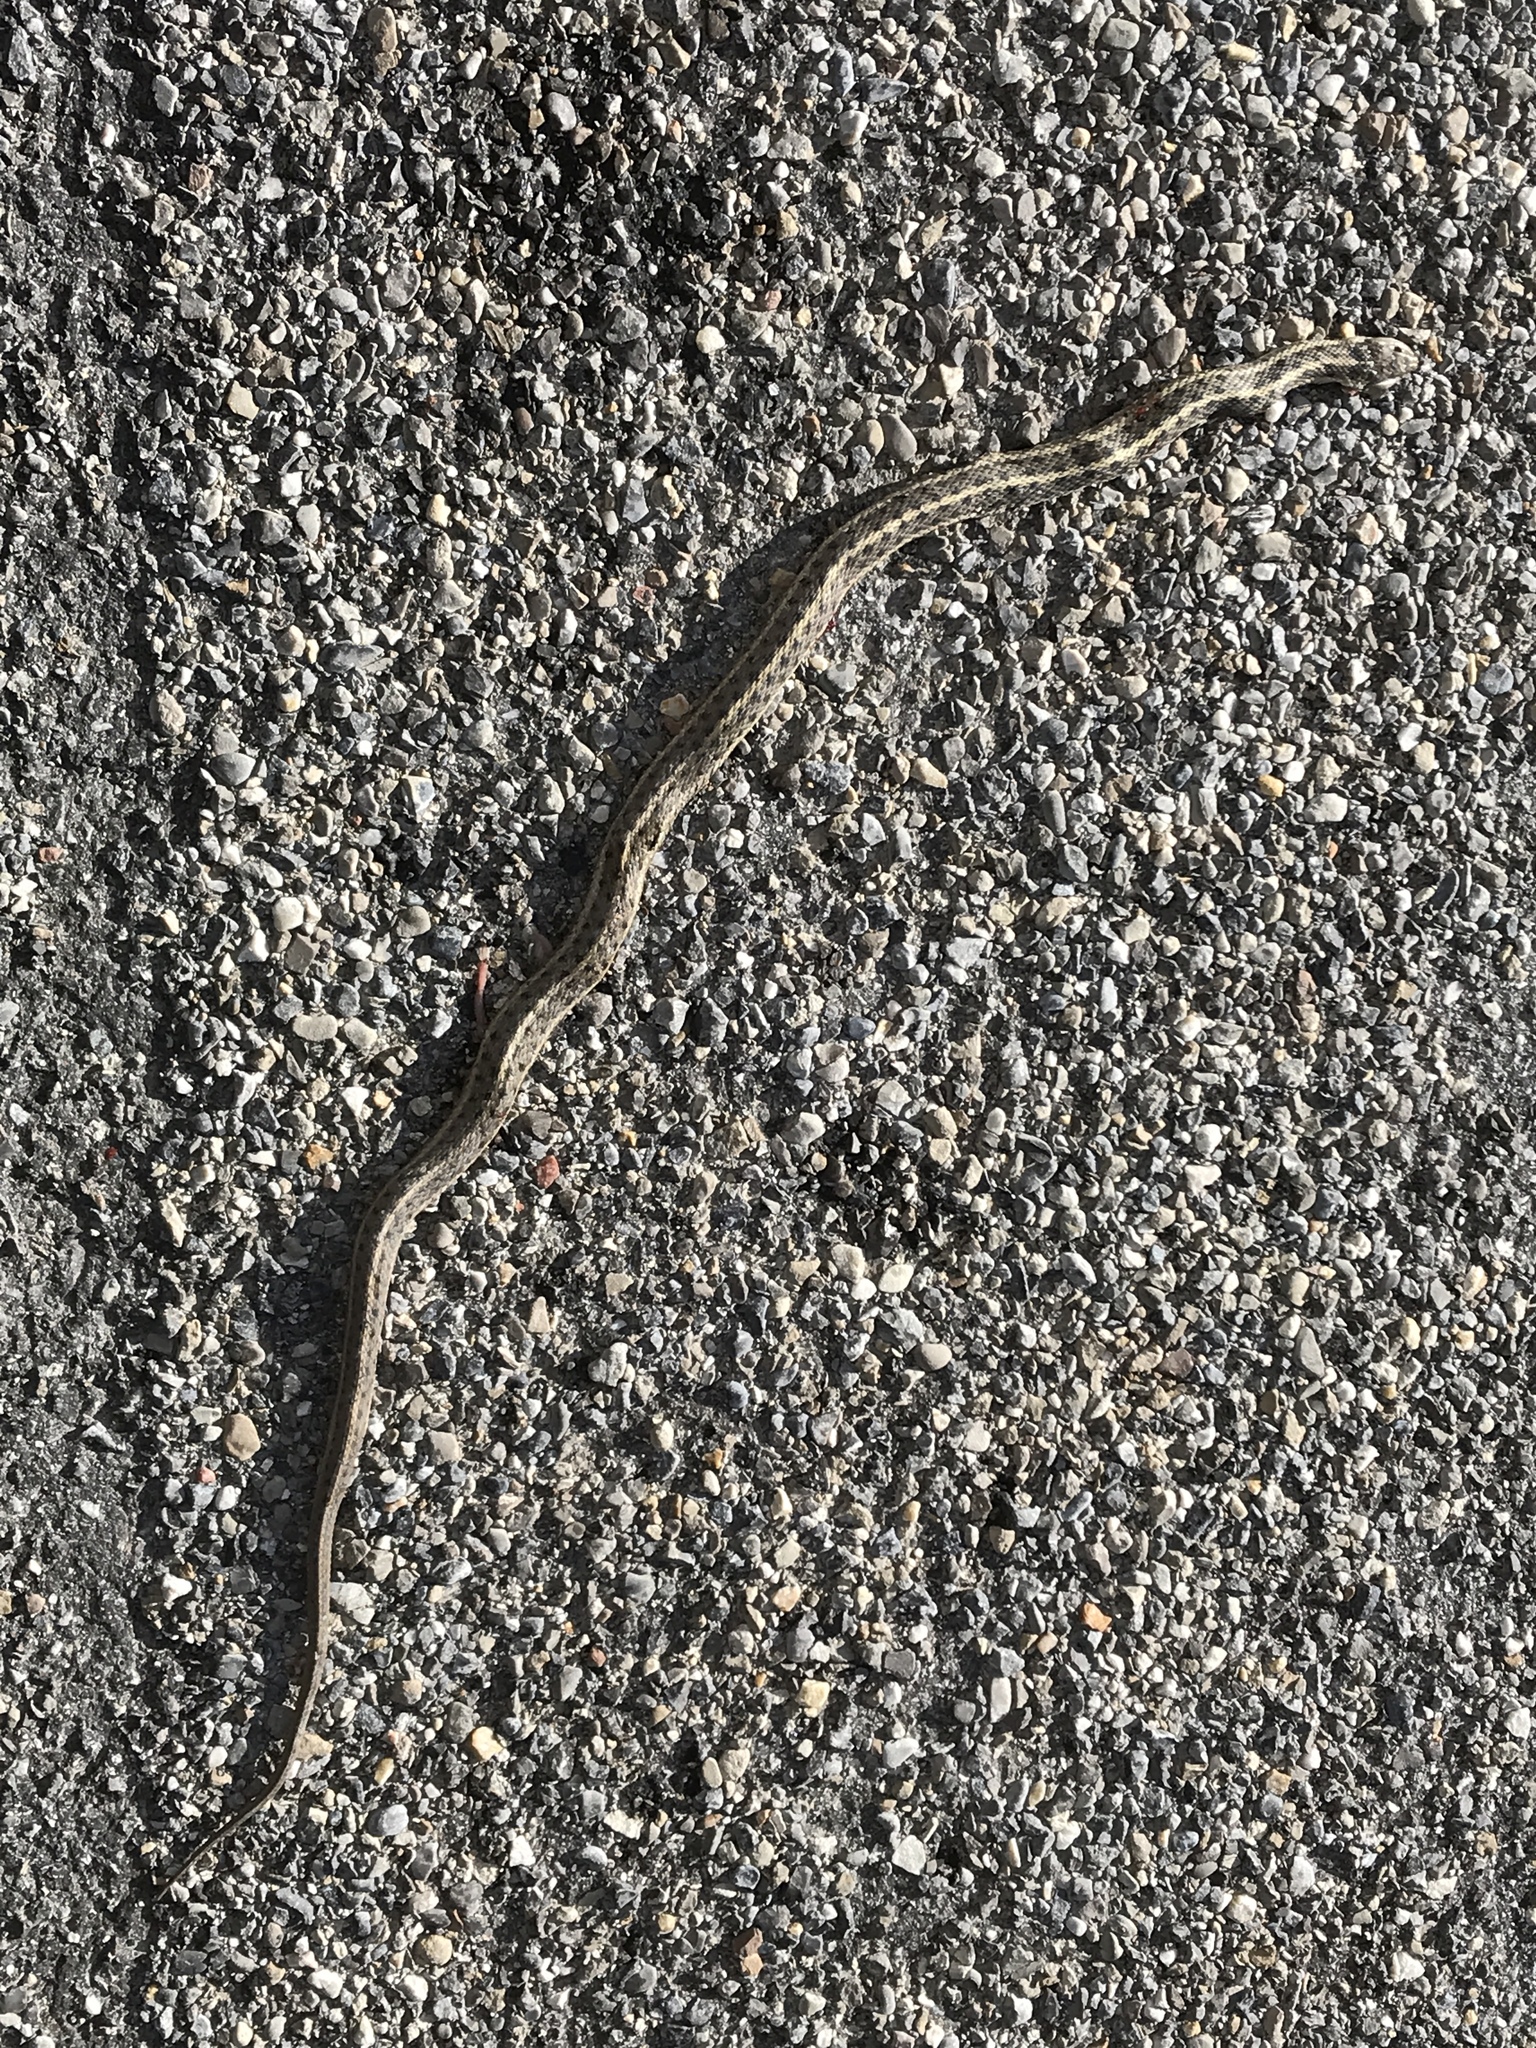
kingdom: Animalia
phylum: Chordata
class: Squamata
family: Colubridae
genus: Thamnophis
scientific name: Thamnophis elegans
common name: Western terrestrial garter snake
